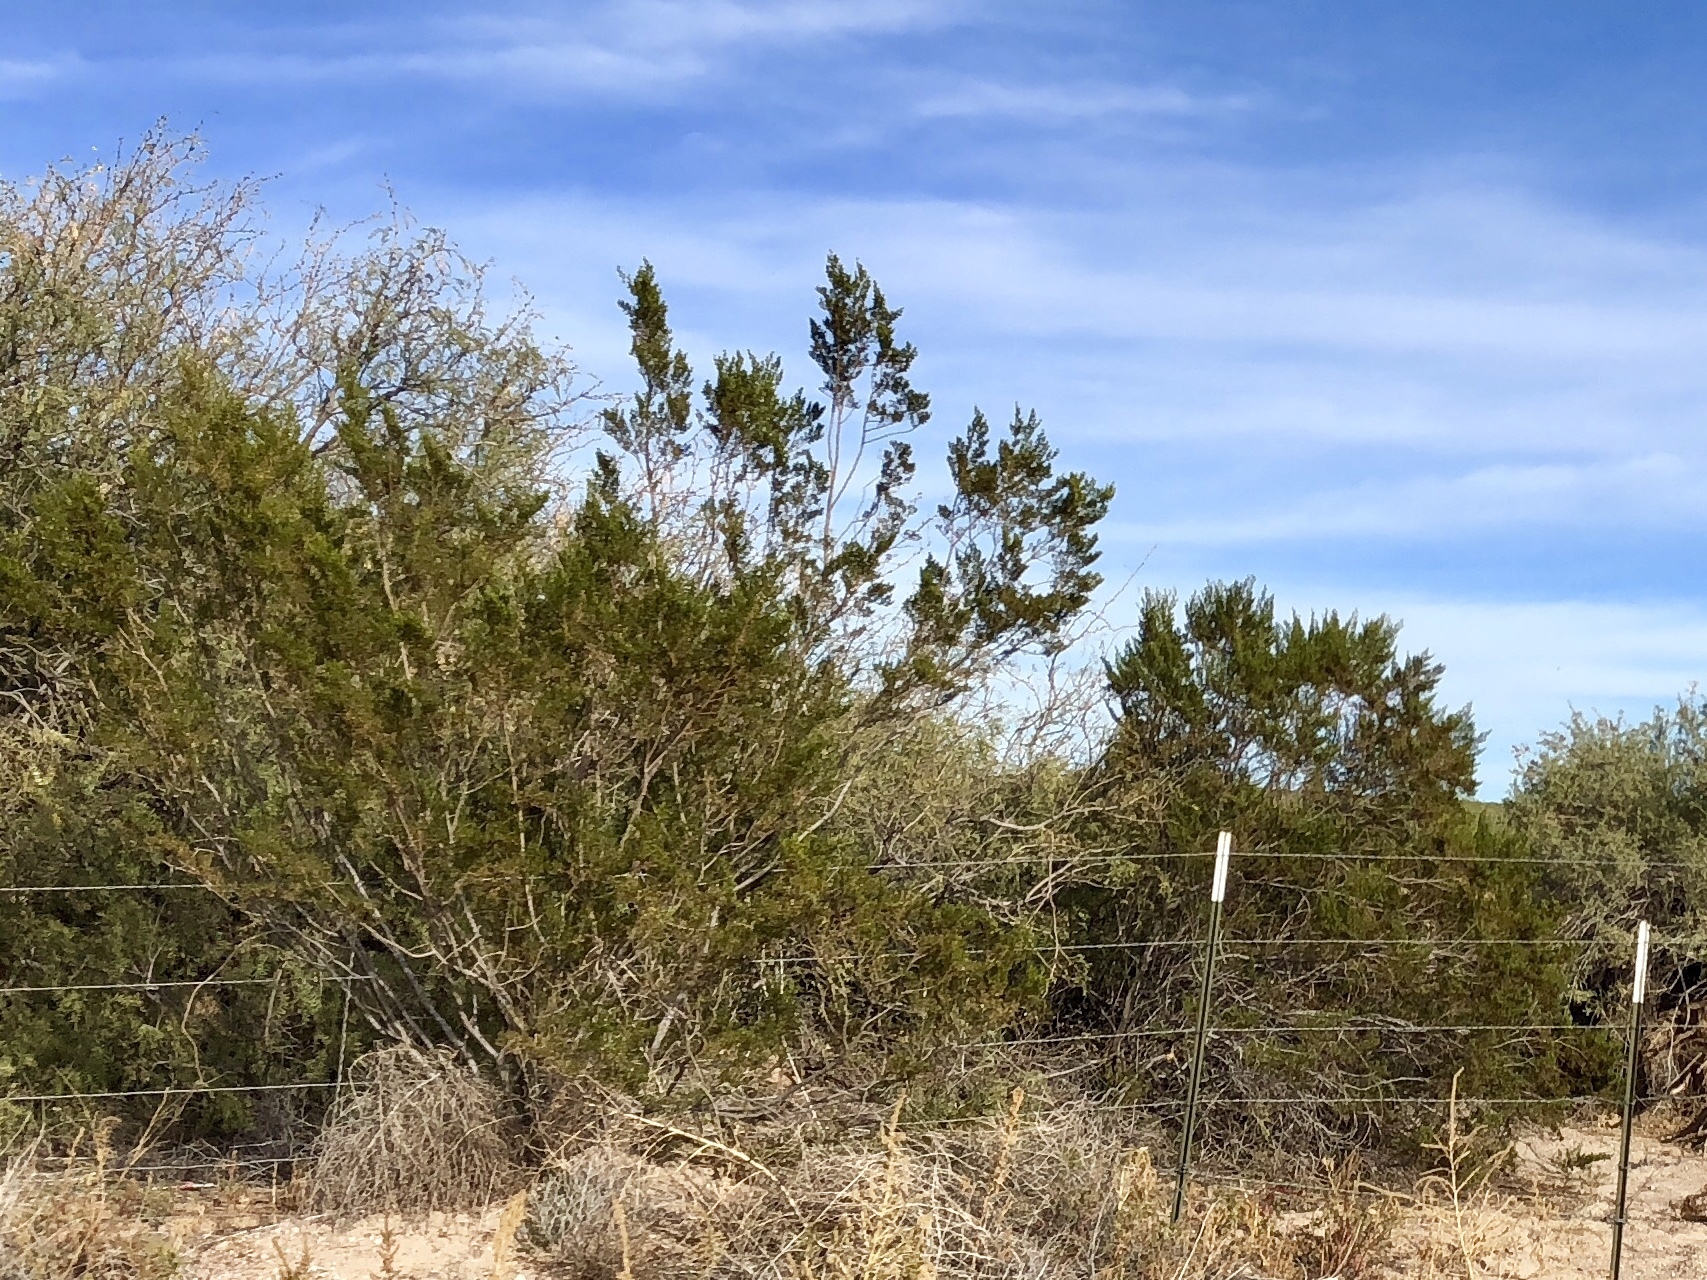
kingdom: Plantae
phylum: Tracheophyta
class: Magnoliopsida
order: Zygophyllales
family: Zygophyllaceae
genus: Larrea
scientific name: Larrea tridentata
